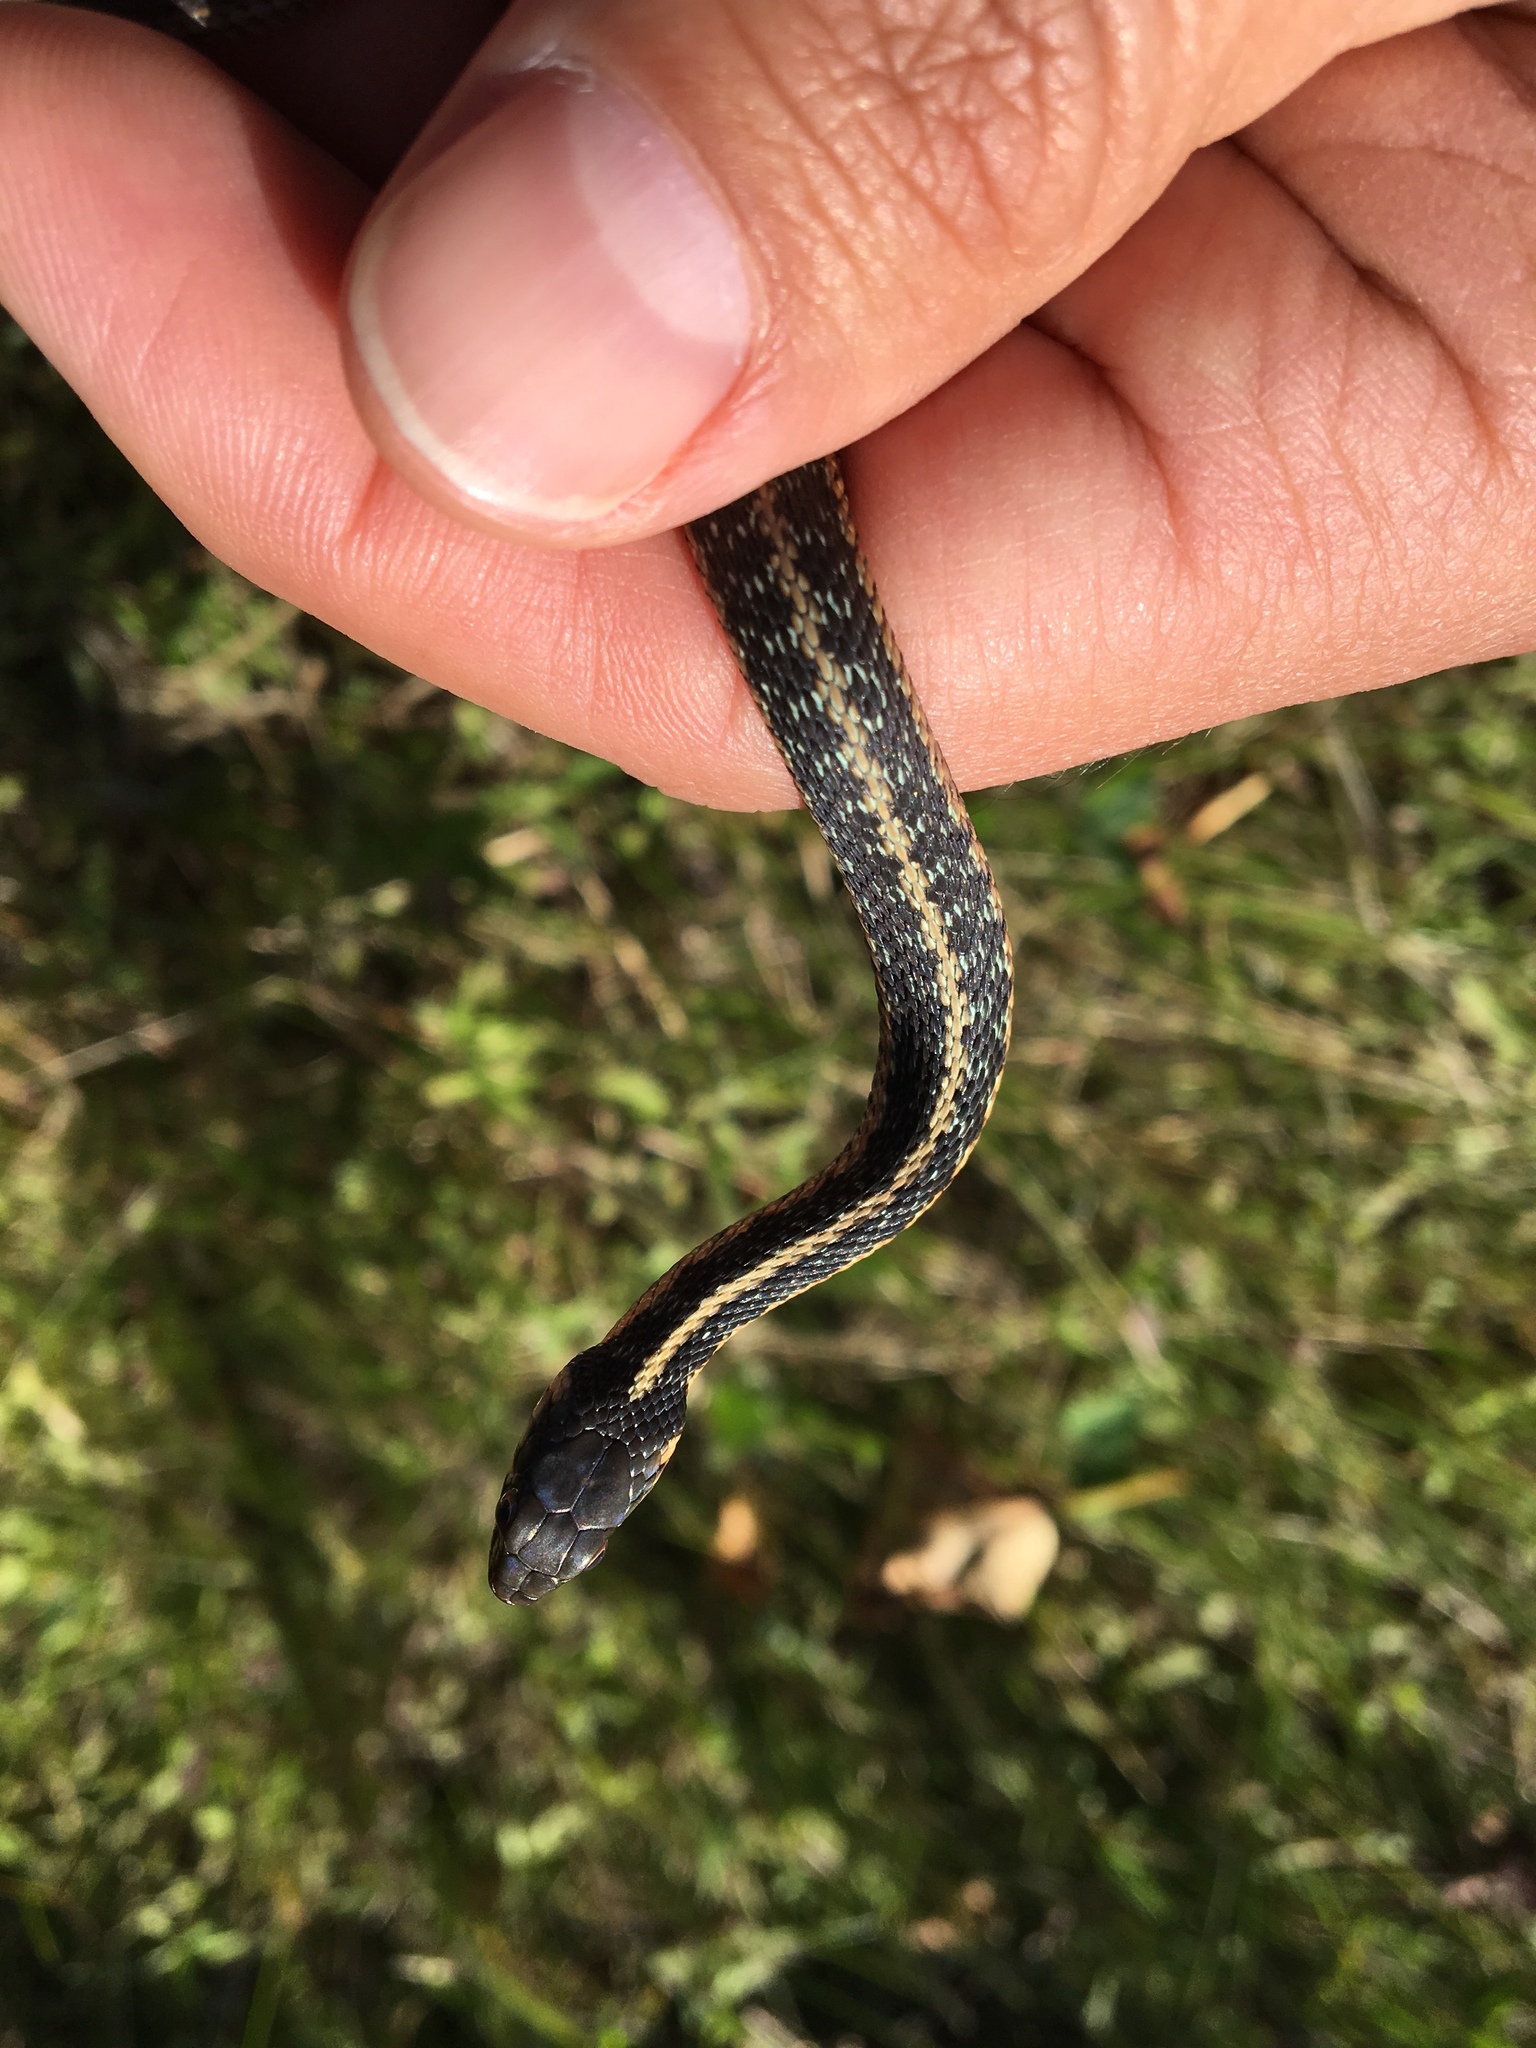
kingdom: Animalia
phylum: Chordata
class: Squamata
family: Colubridae
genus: Thamnophis
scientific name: Thamnophis sirtalis
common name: Common garter snake
